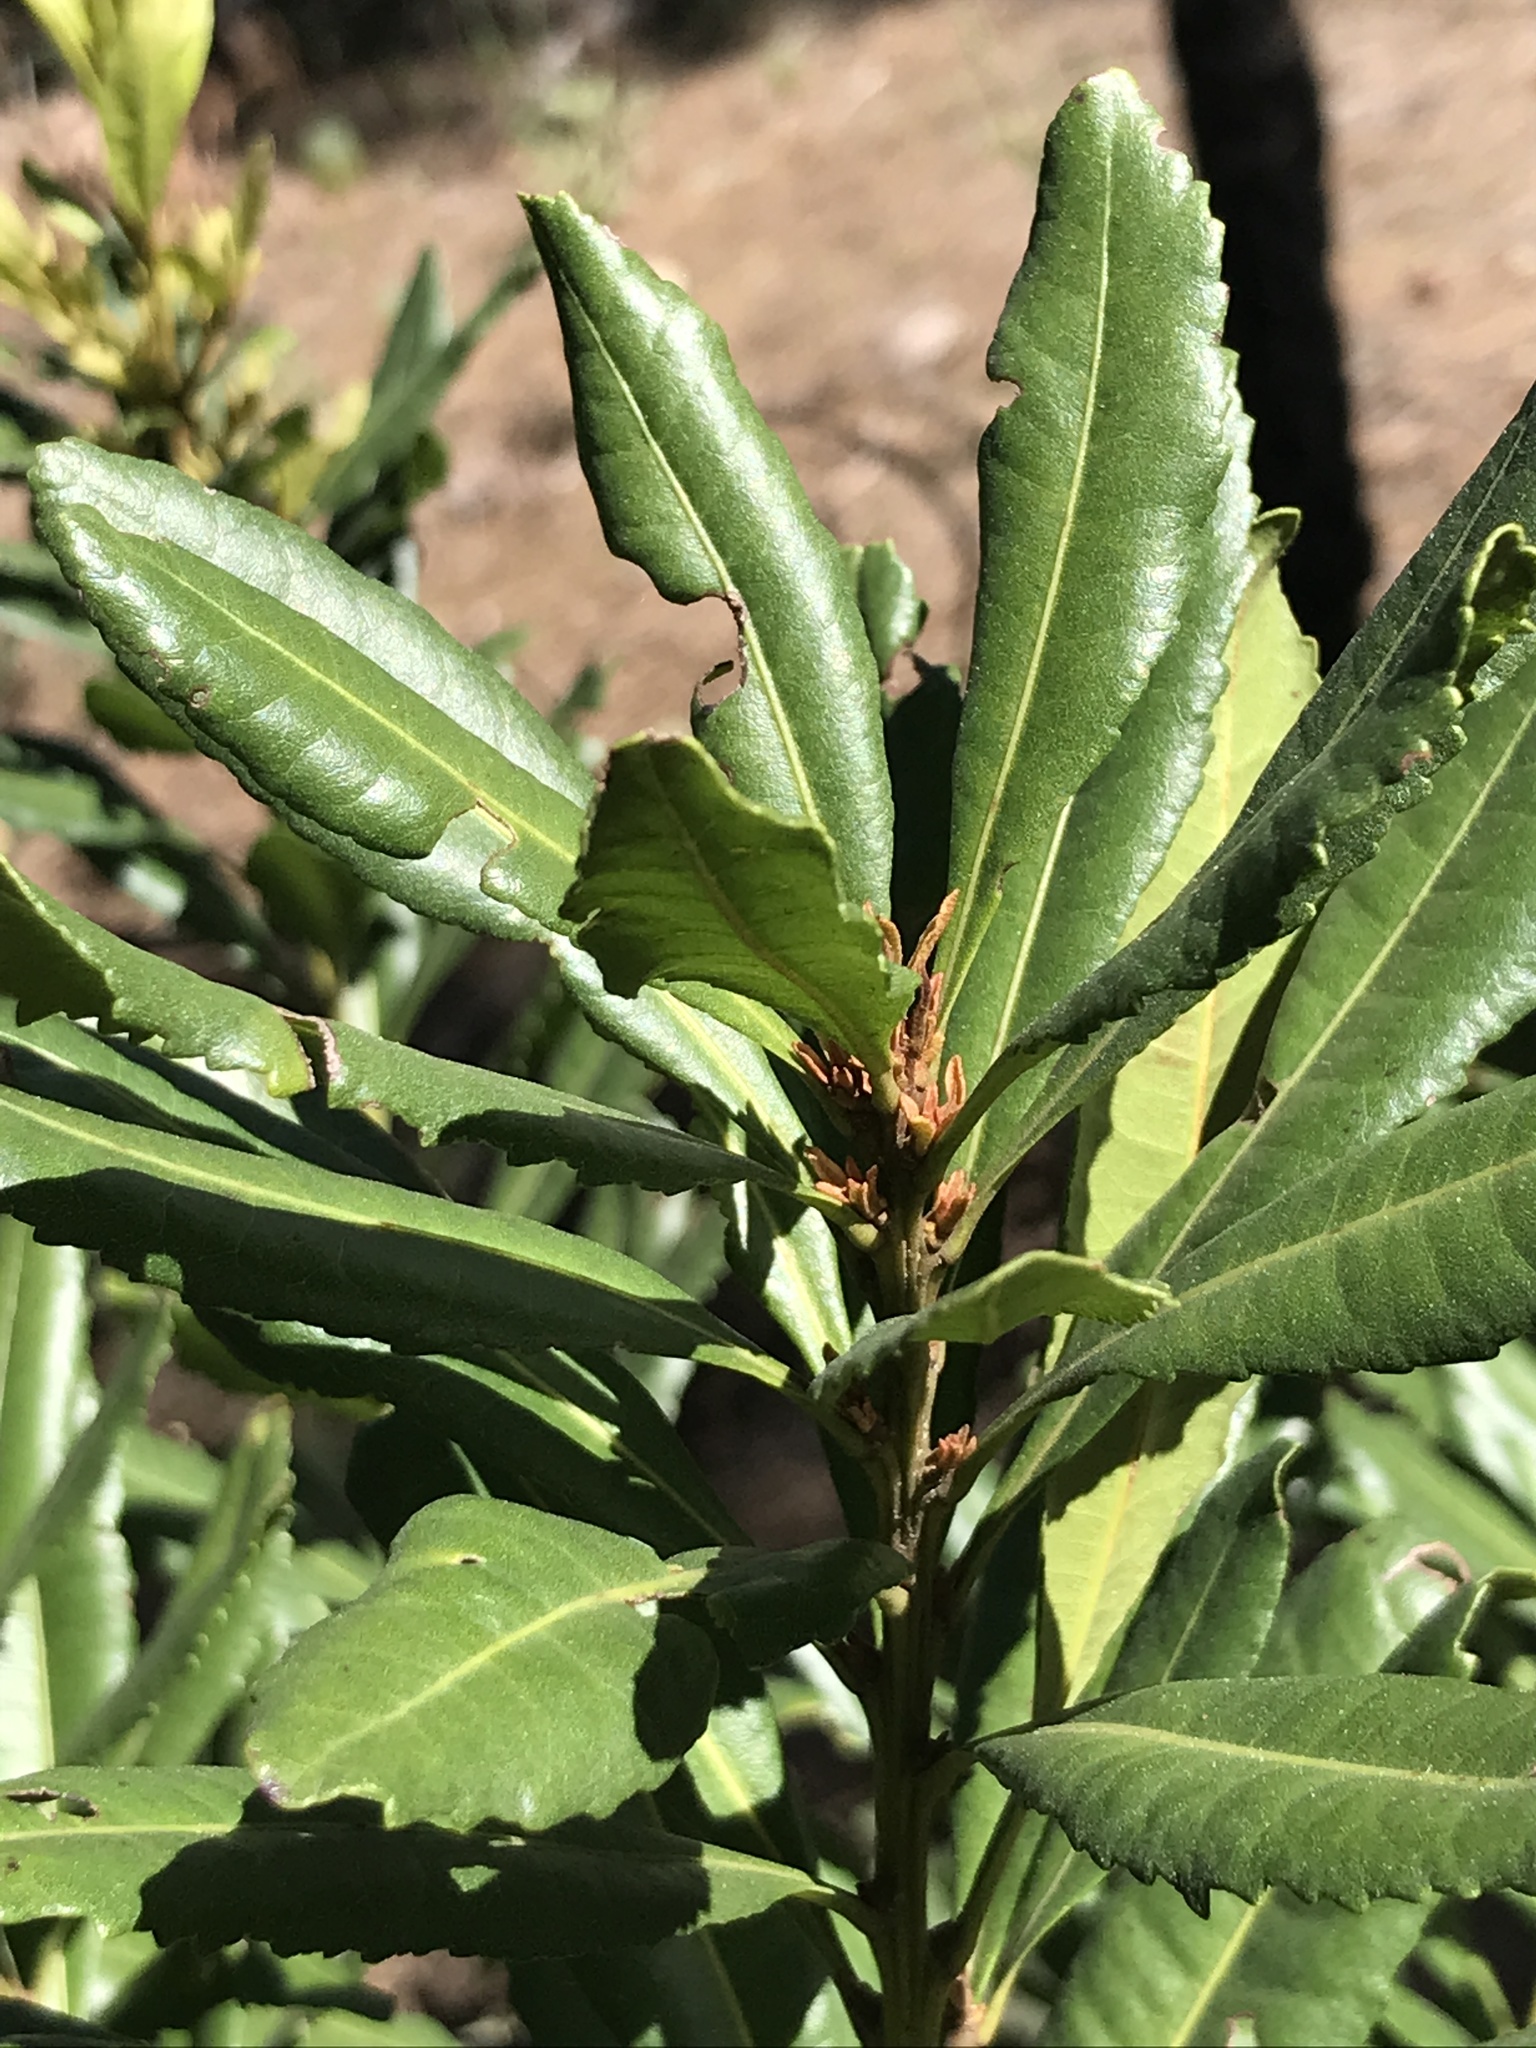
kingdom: Plantae
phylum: Tracheophyta
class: Magnoliopsida
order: Fagales
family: Myricaceae
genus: Morella
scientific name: Morella faya
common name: Firetree
